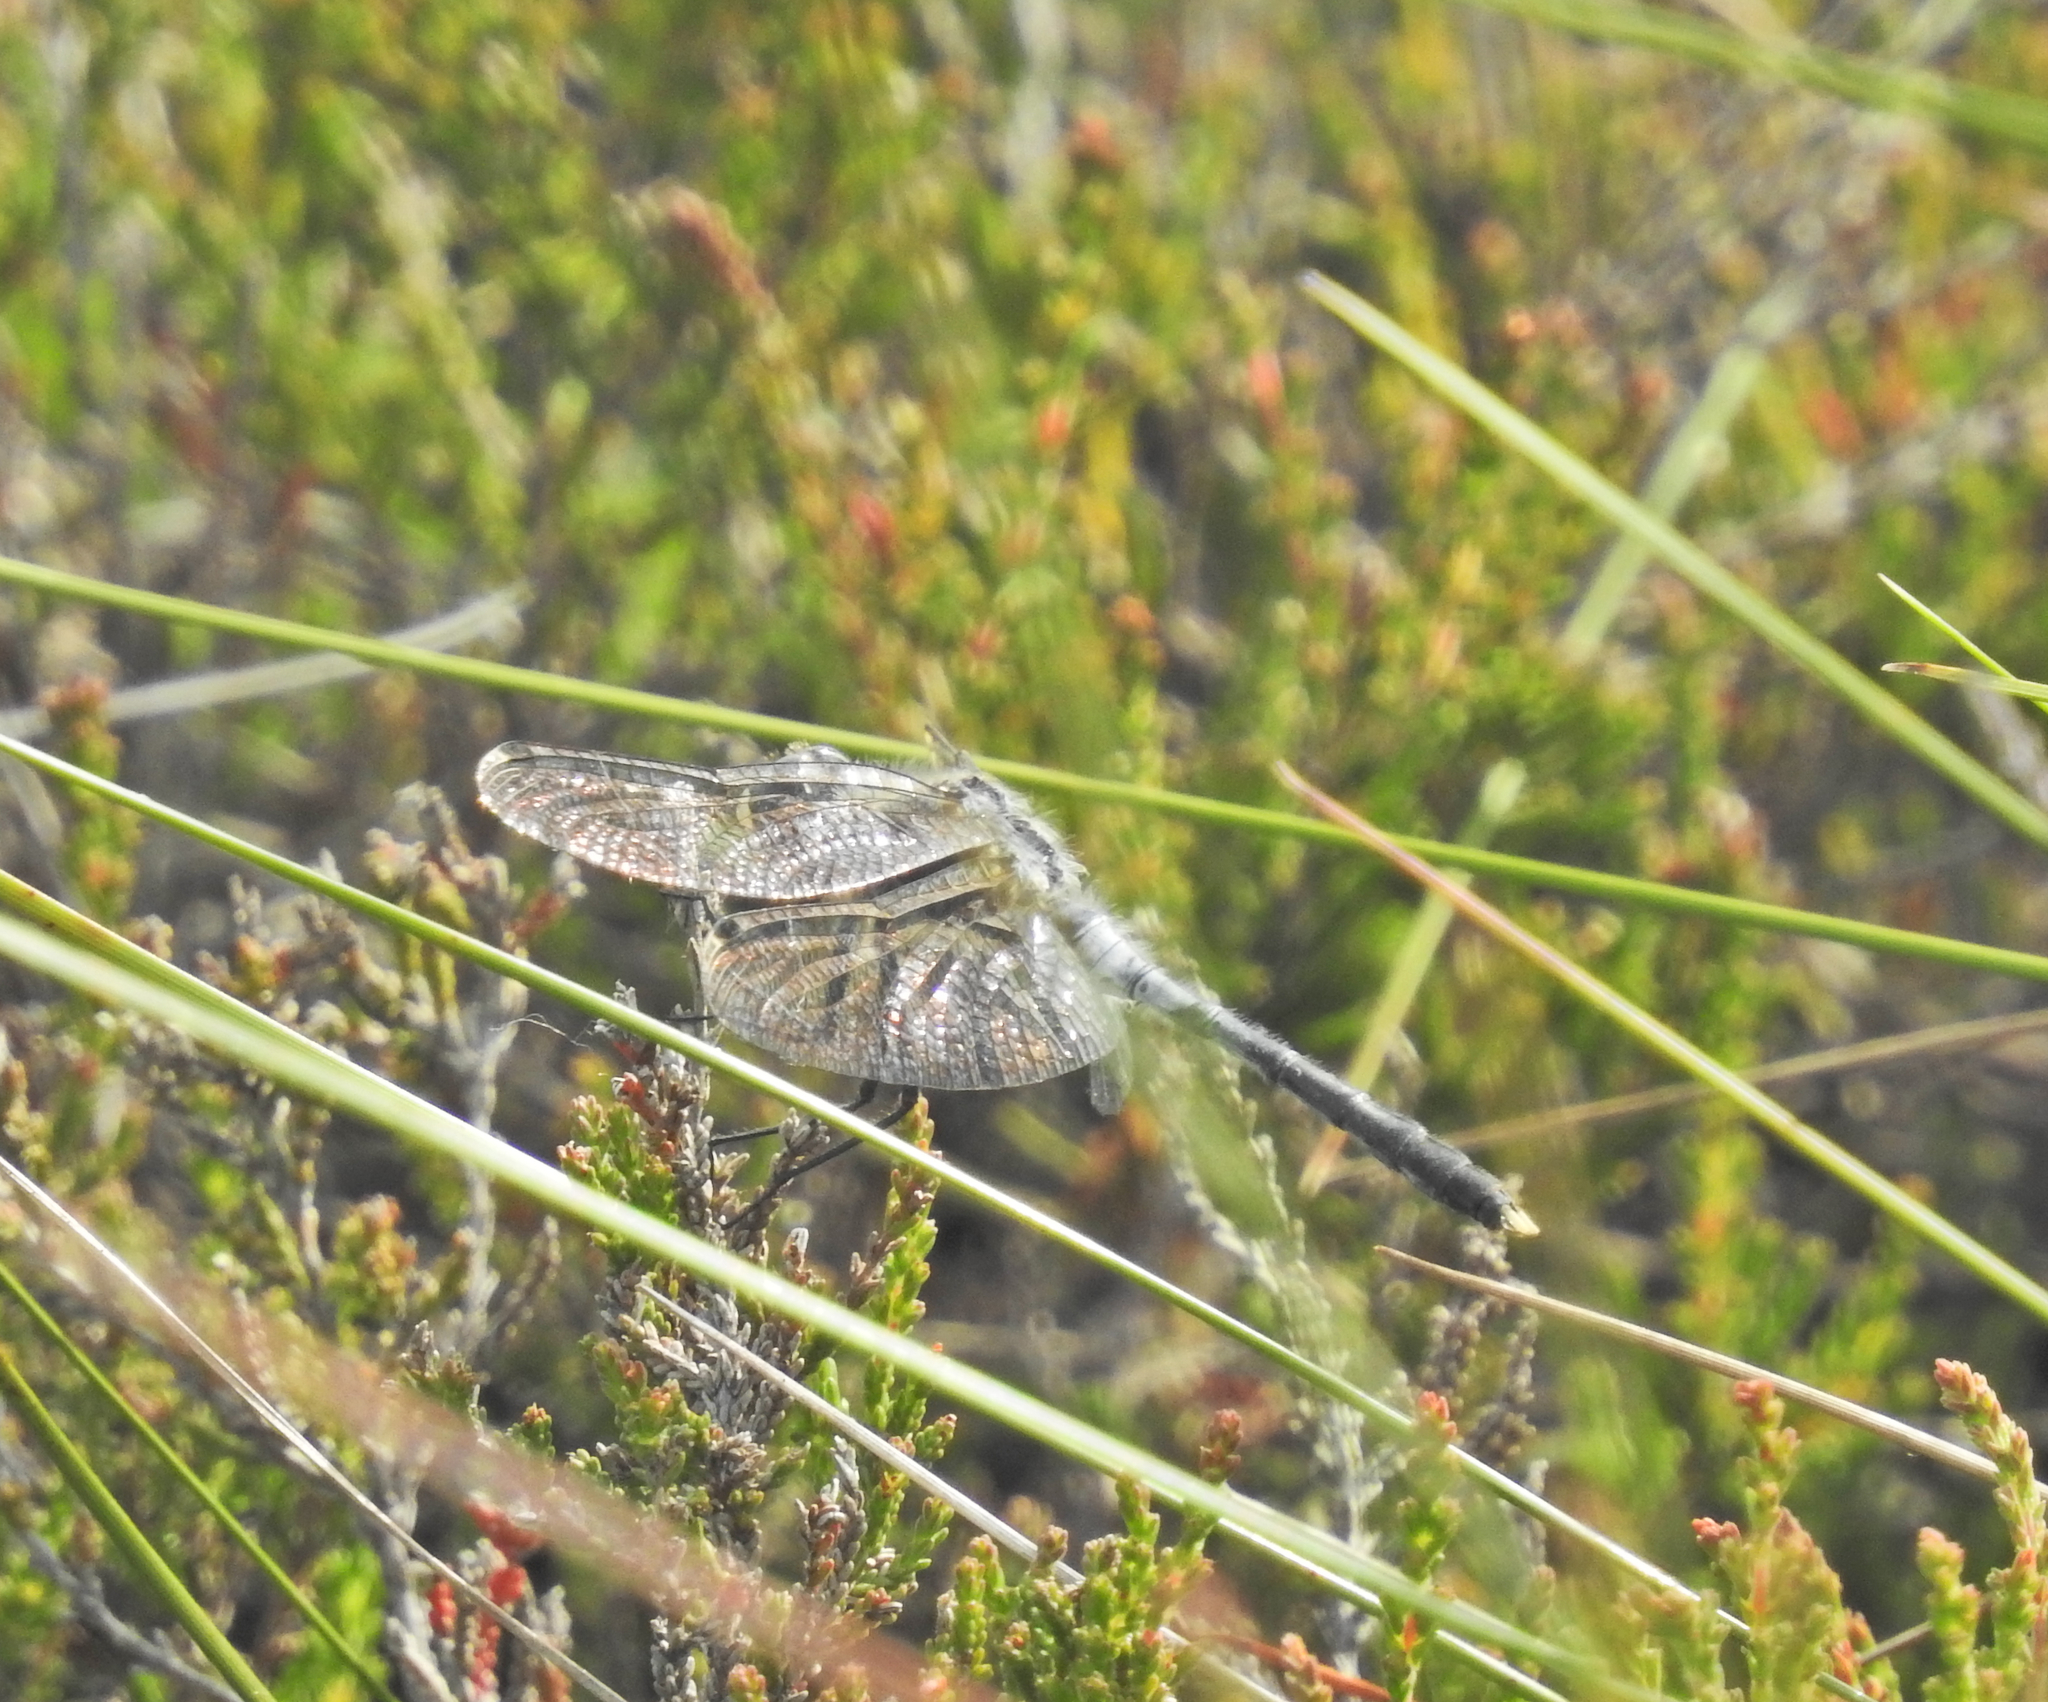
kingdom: Animalia
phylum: Arthropoda
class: Insecta
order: Odonata
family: Libellulidae
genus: Leucorrhinia
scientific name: Leucorrhinia albifrons
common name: Dark whiteface
